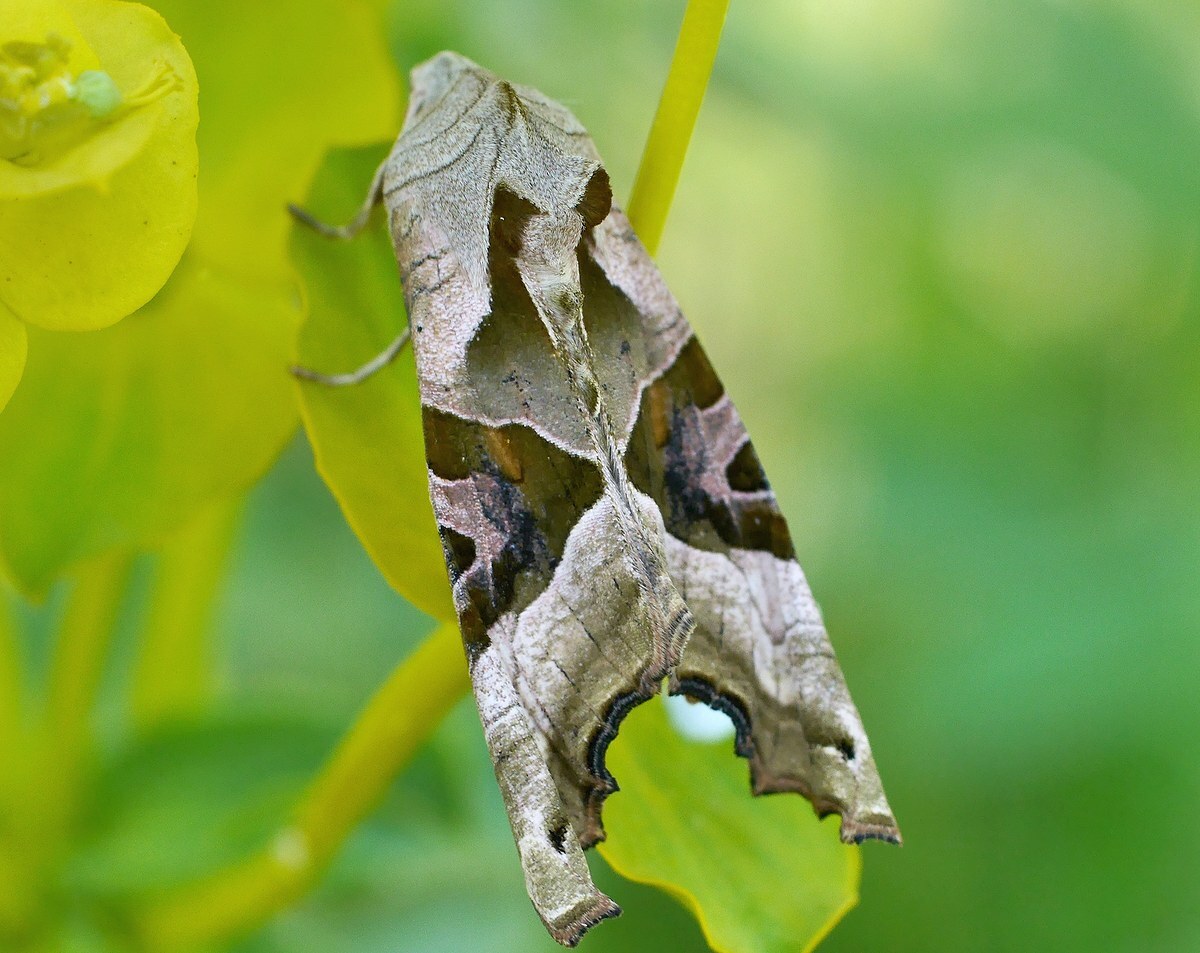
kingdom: Animalia
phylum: Arthropoda
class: Insecta
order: Lepidoptera
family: Noctuidae
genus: Phlogophora
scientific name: Phlogophora meticulosa
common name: Angle shades
